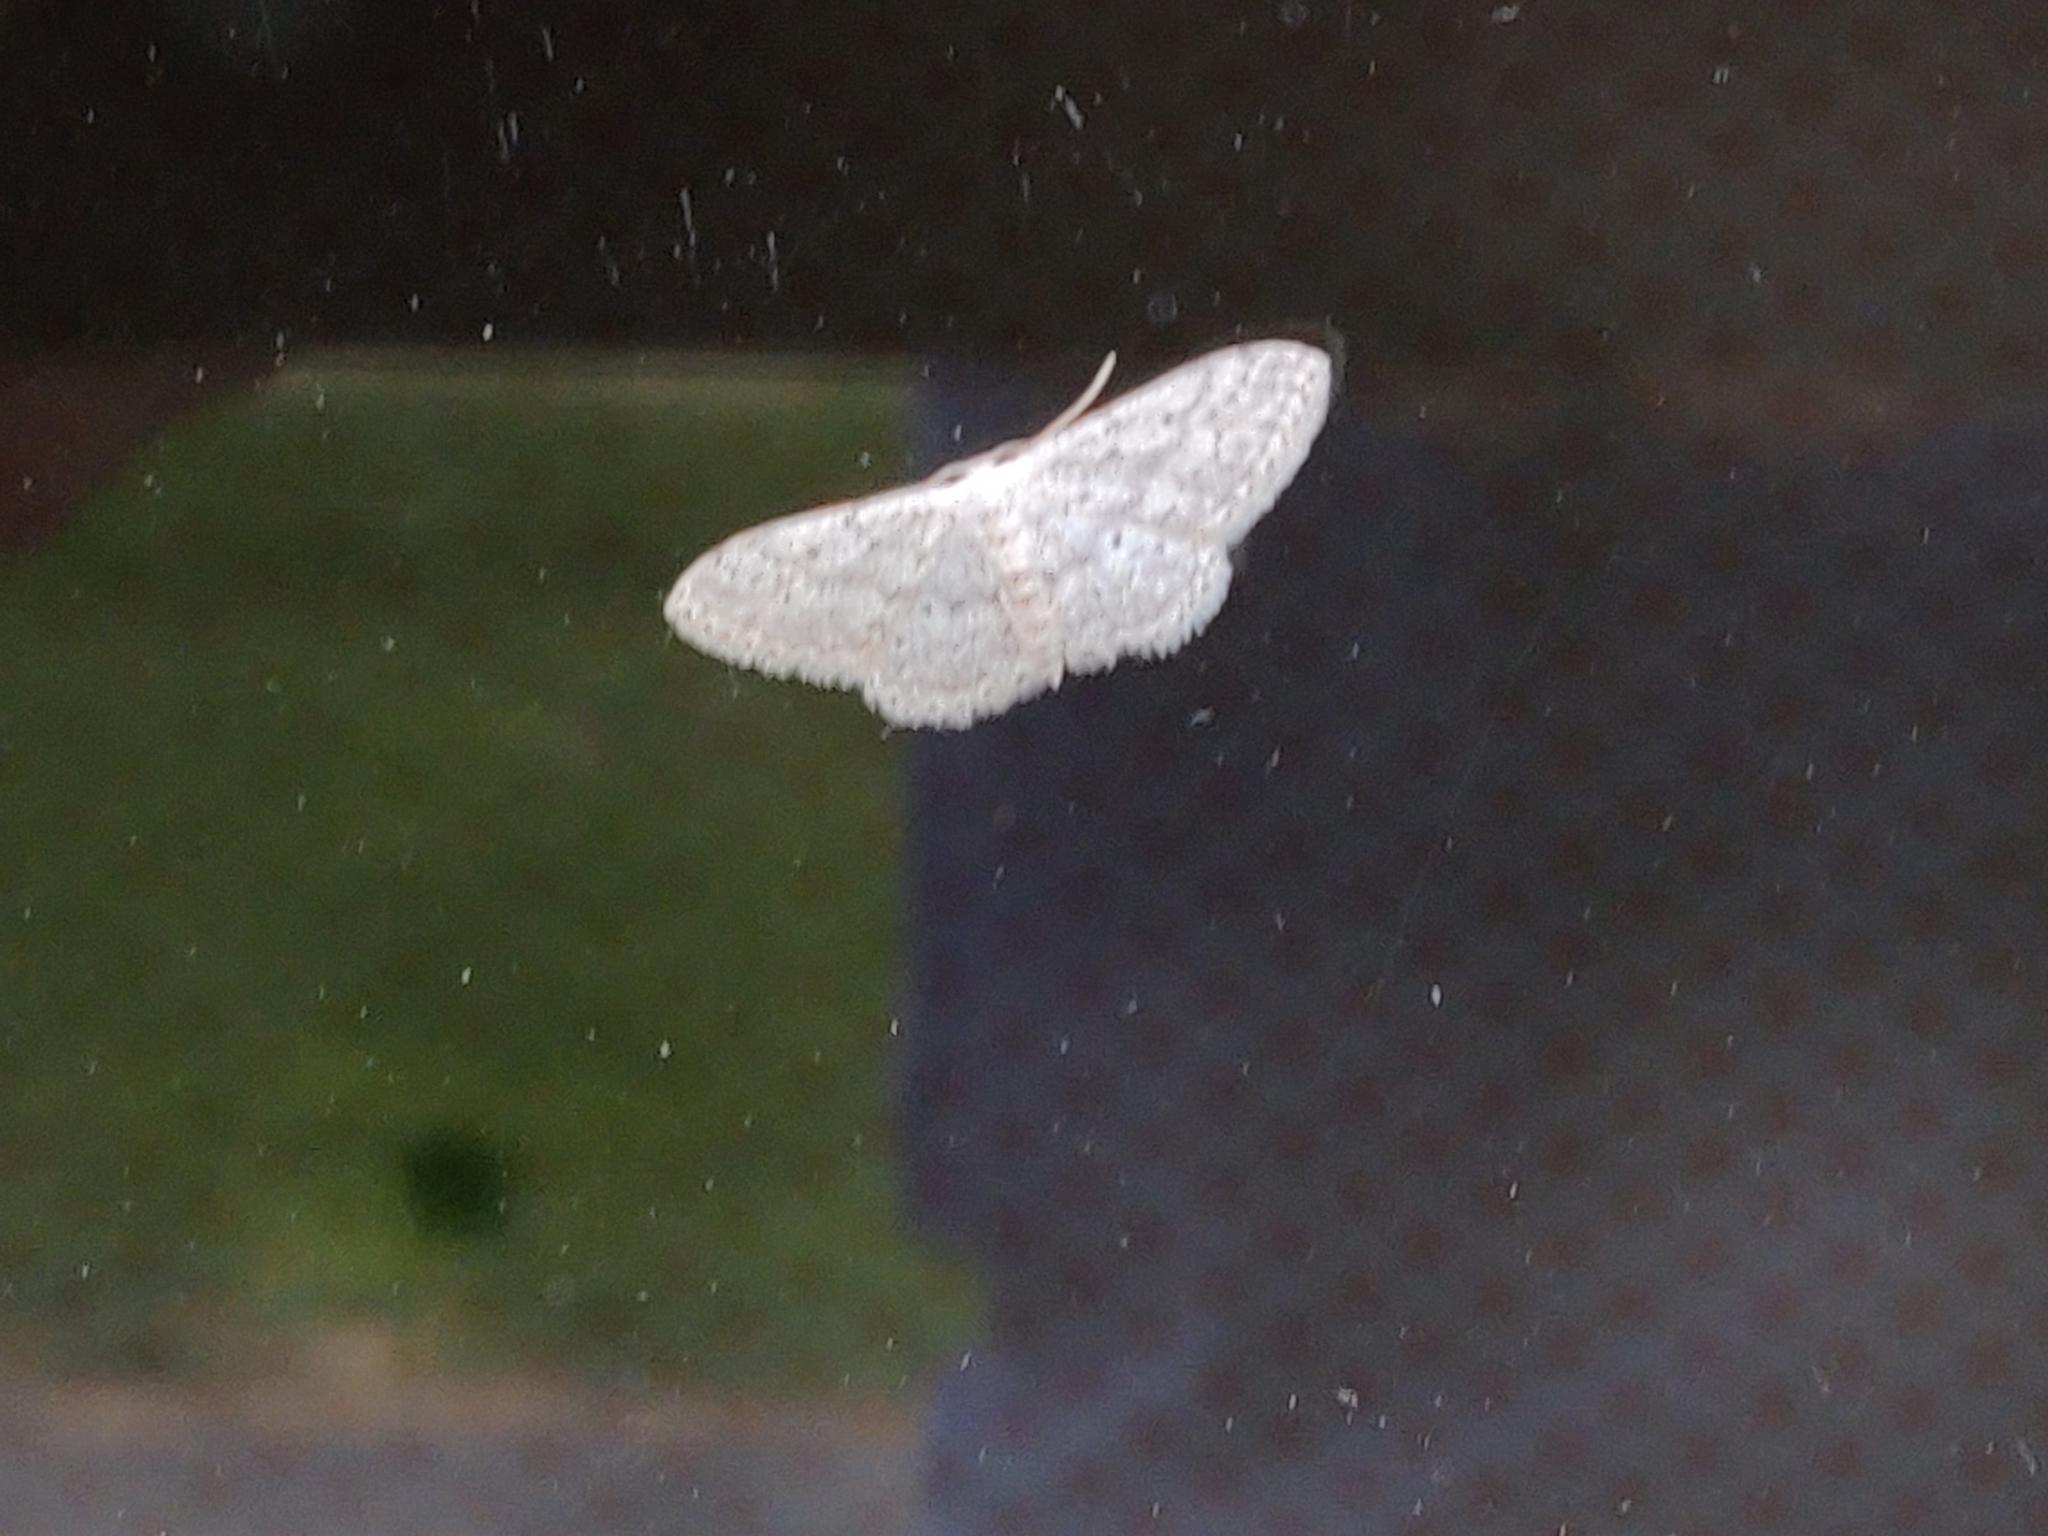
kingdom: Animalia
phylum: Arthropoda
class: Insecta
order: Lepidoptera
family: Geometridae
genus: Idaea
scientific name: Idaea seriata
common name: Small dusty wave
